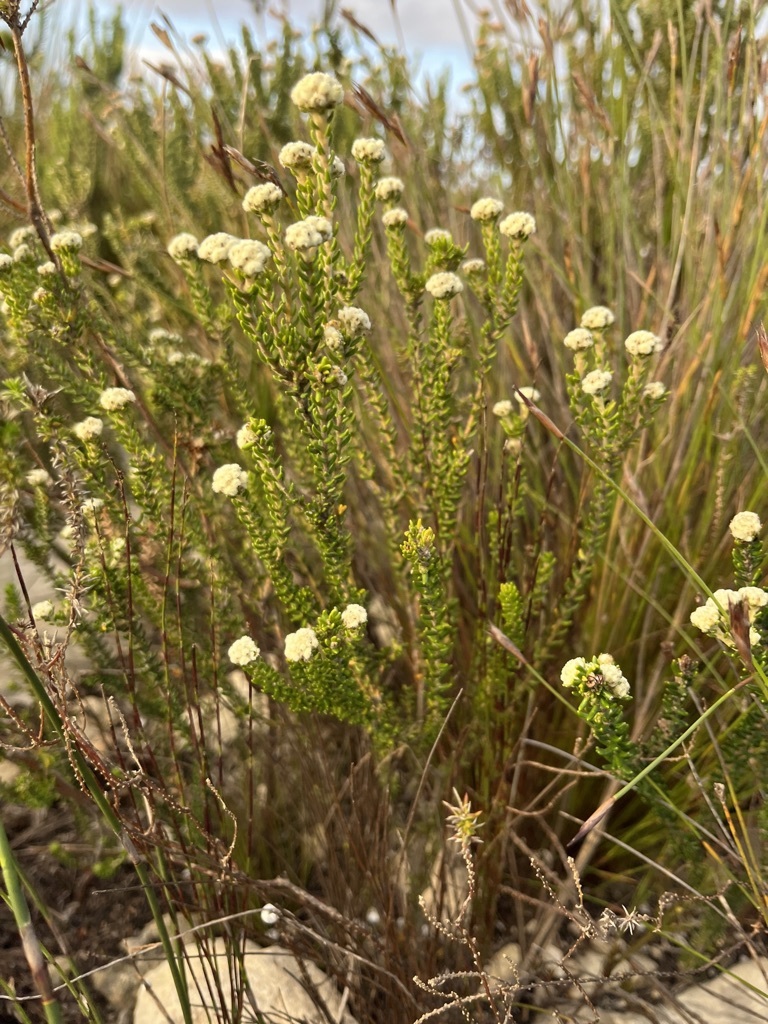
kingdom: Plantae
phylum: Tracheophyta
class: Magnoliopsida
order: Rosales
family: Rhamnaceae
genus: Phylica
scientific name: Phylica selaginoides
